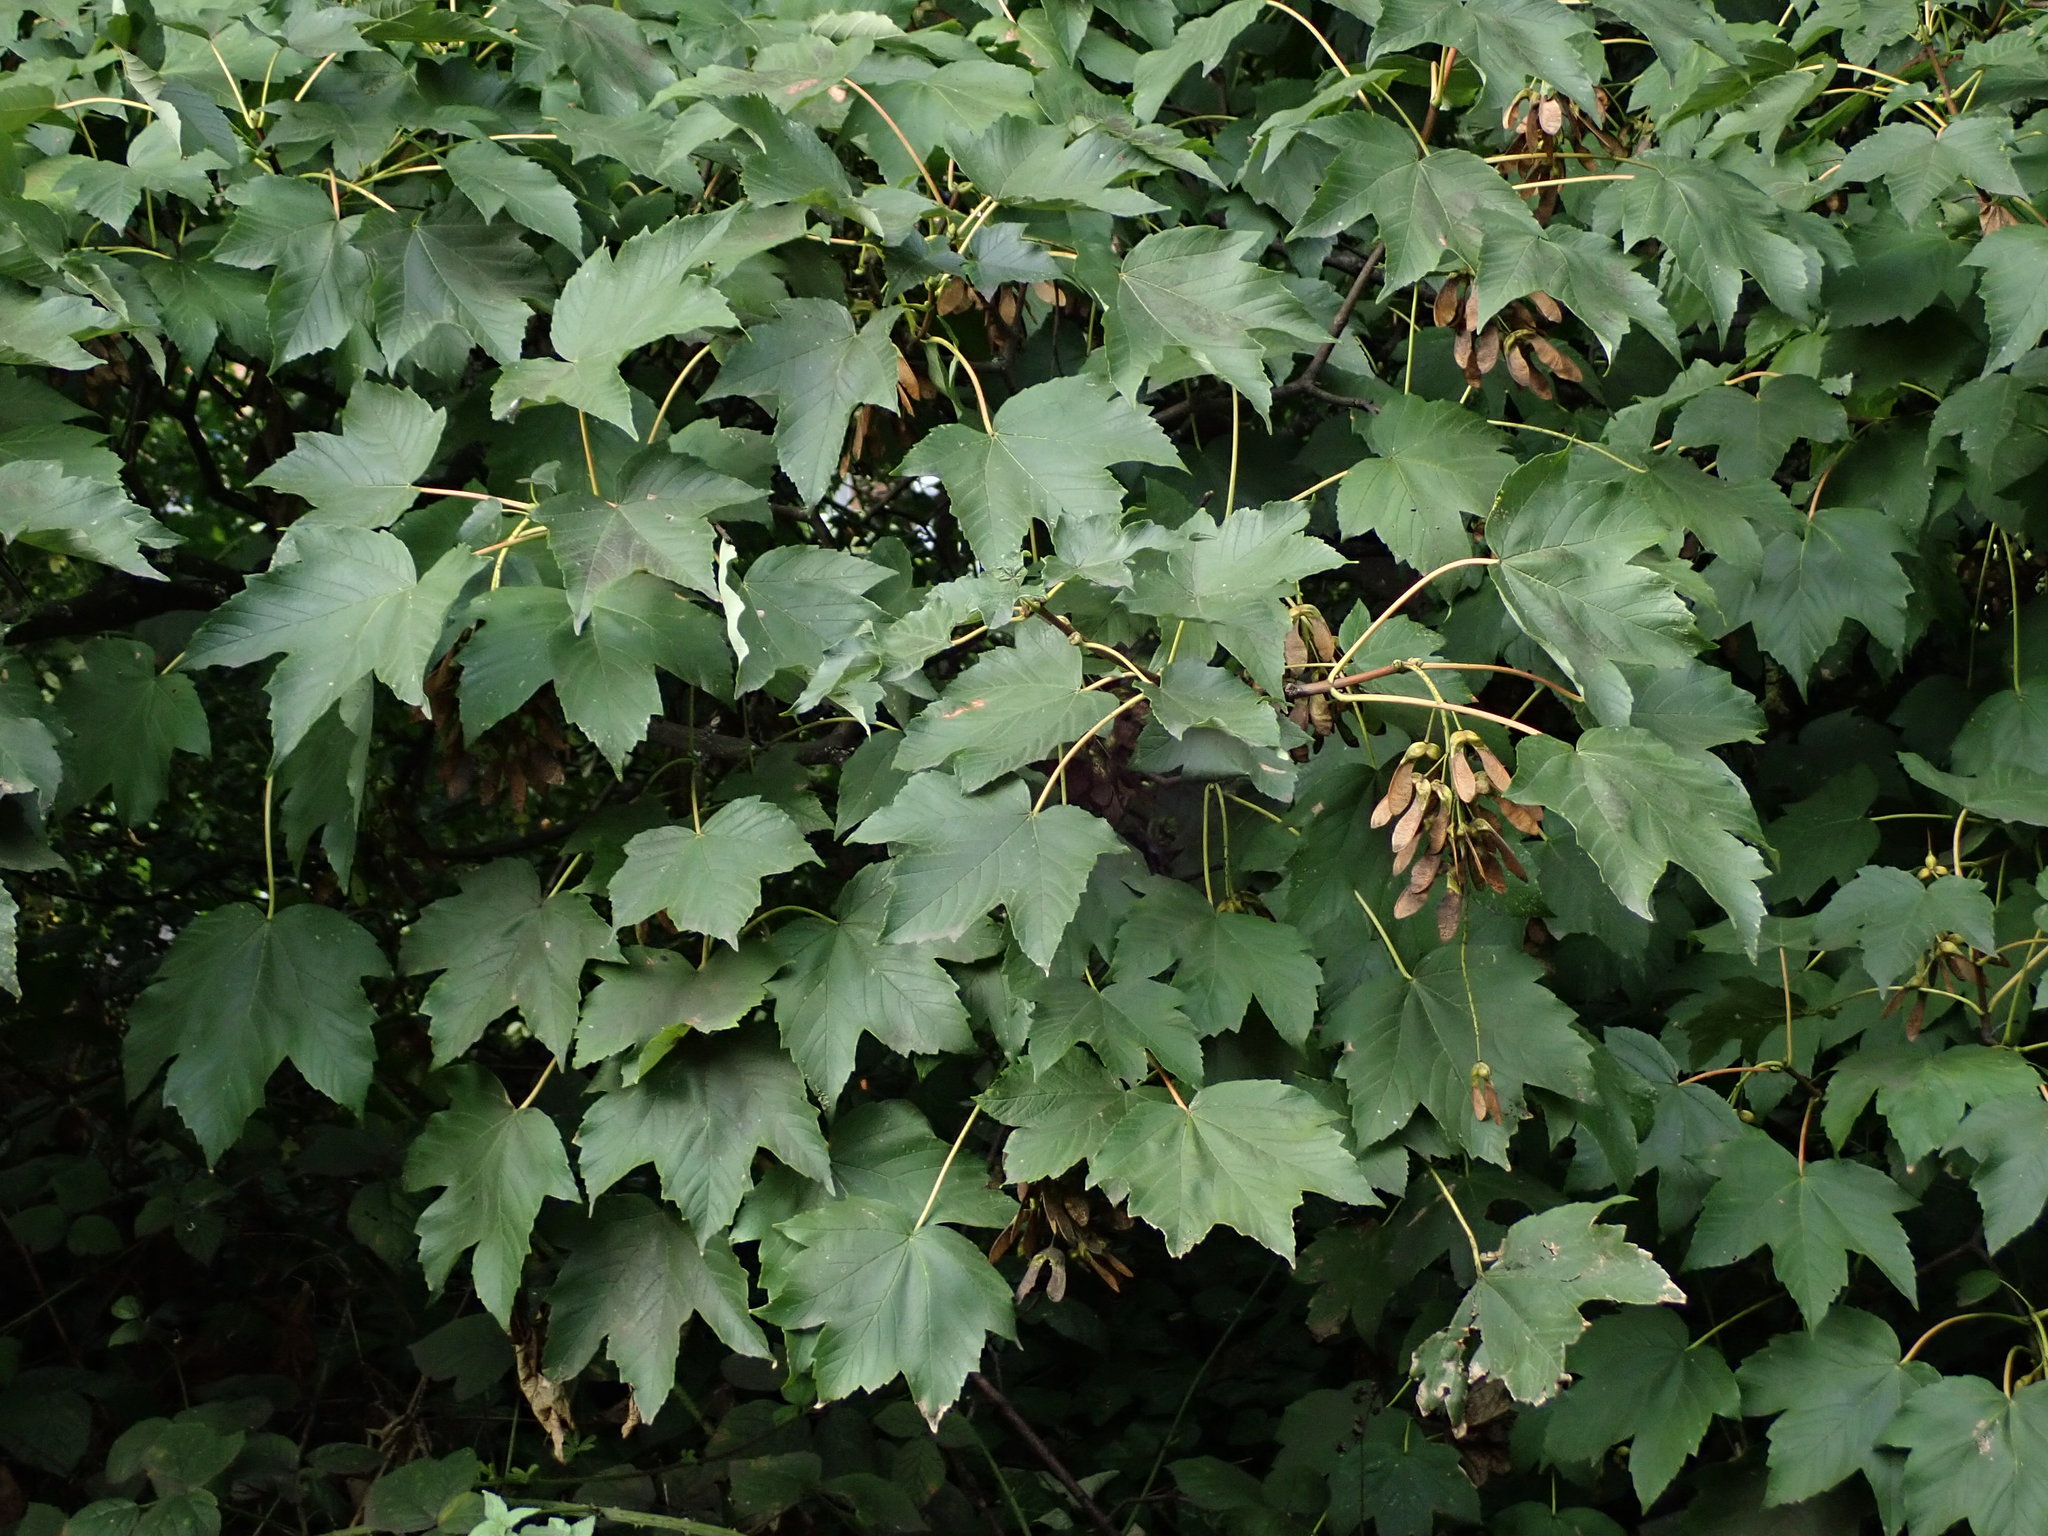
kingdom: Plantae
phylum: Tracheophyta
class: Magnoliopsida
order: Sapindales
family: Sapindaceae
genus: Acer
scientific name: Acer pseudoplatanus
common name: Sycamore
